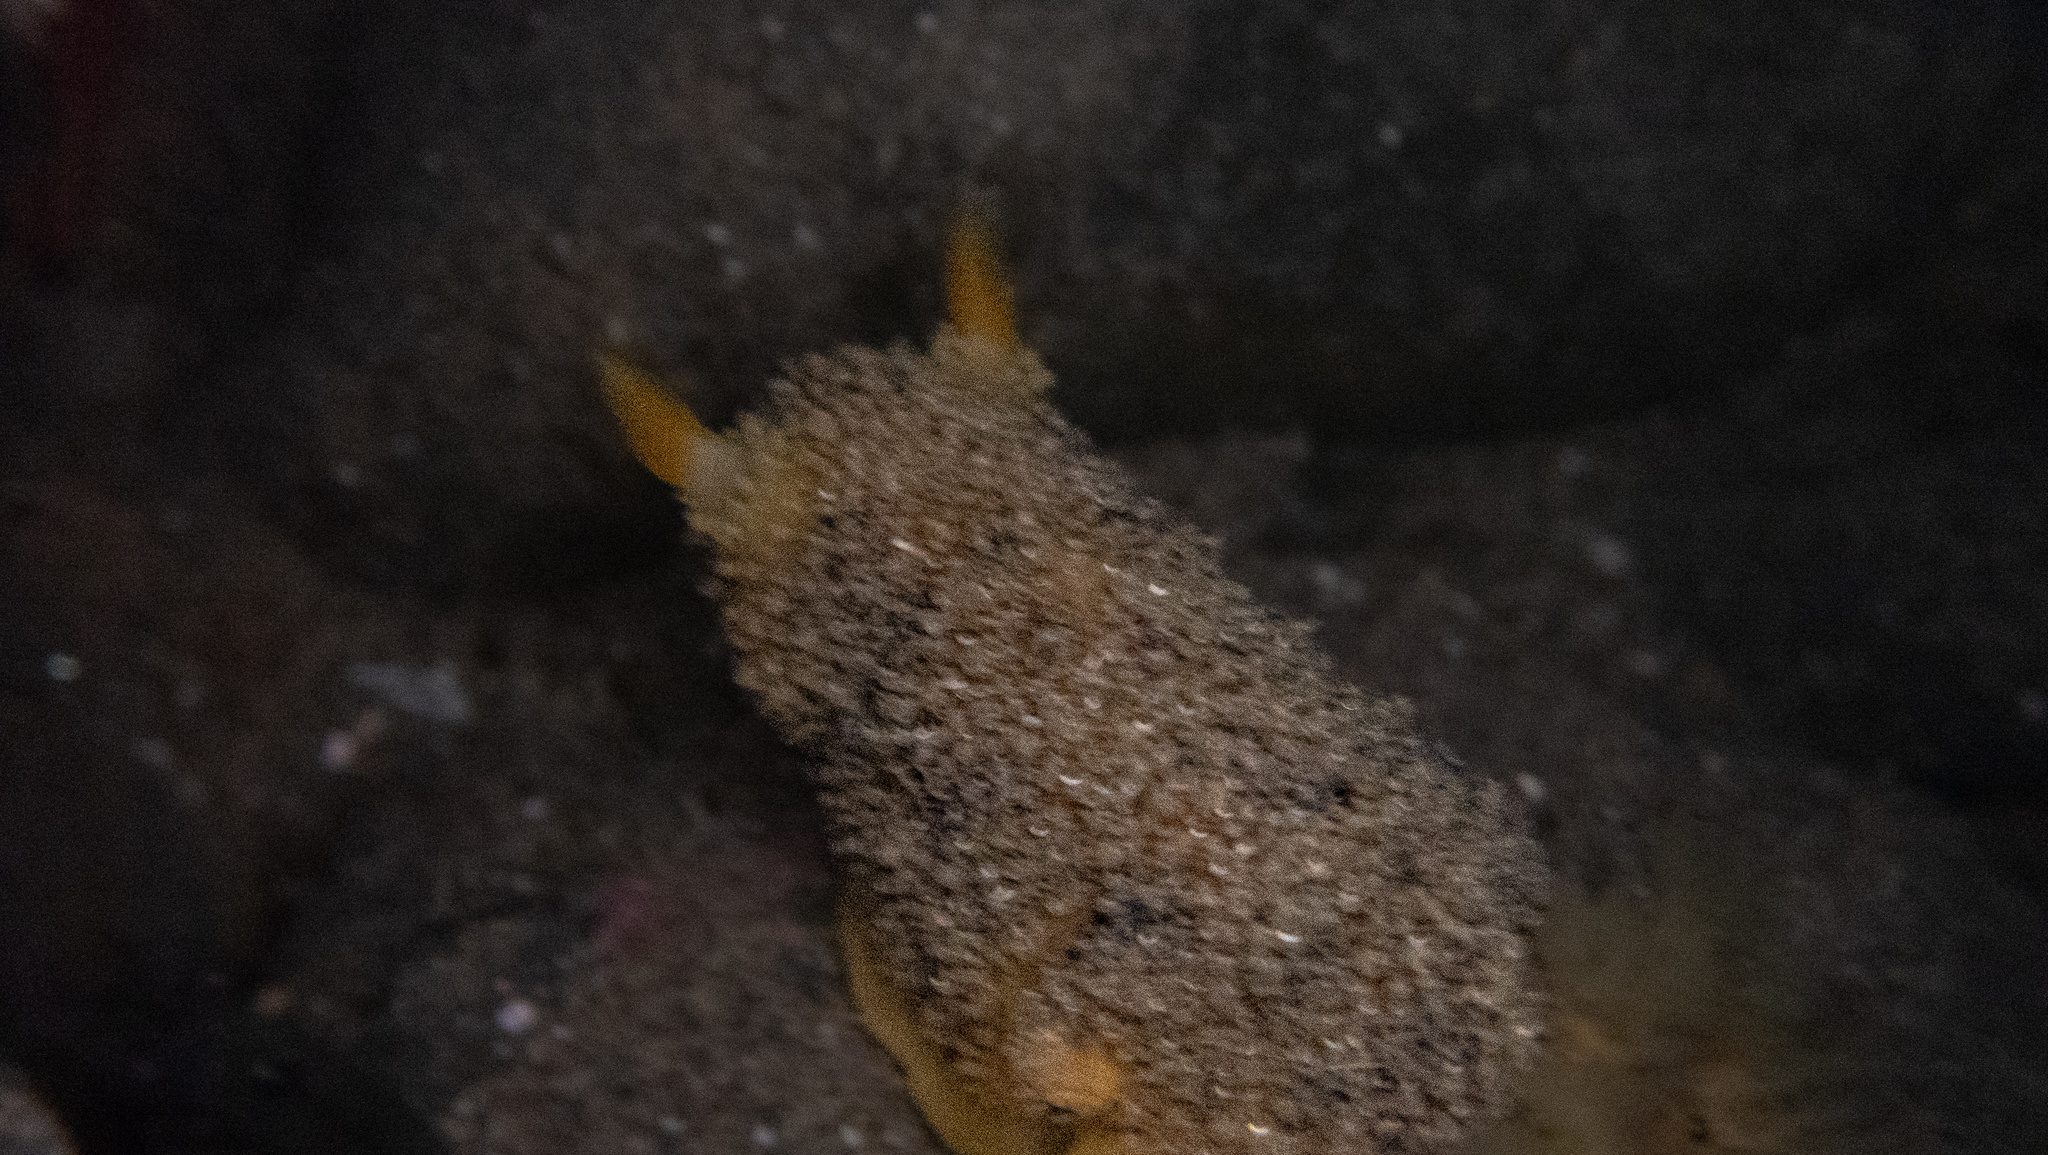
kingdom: Animalia
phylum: Mollusca
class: Gastropoda
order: Nudibranchia
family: Dorididae
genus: Doris
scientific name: Doris montereyensis
